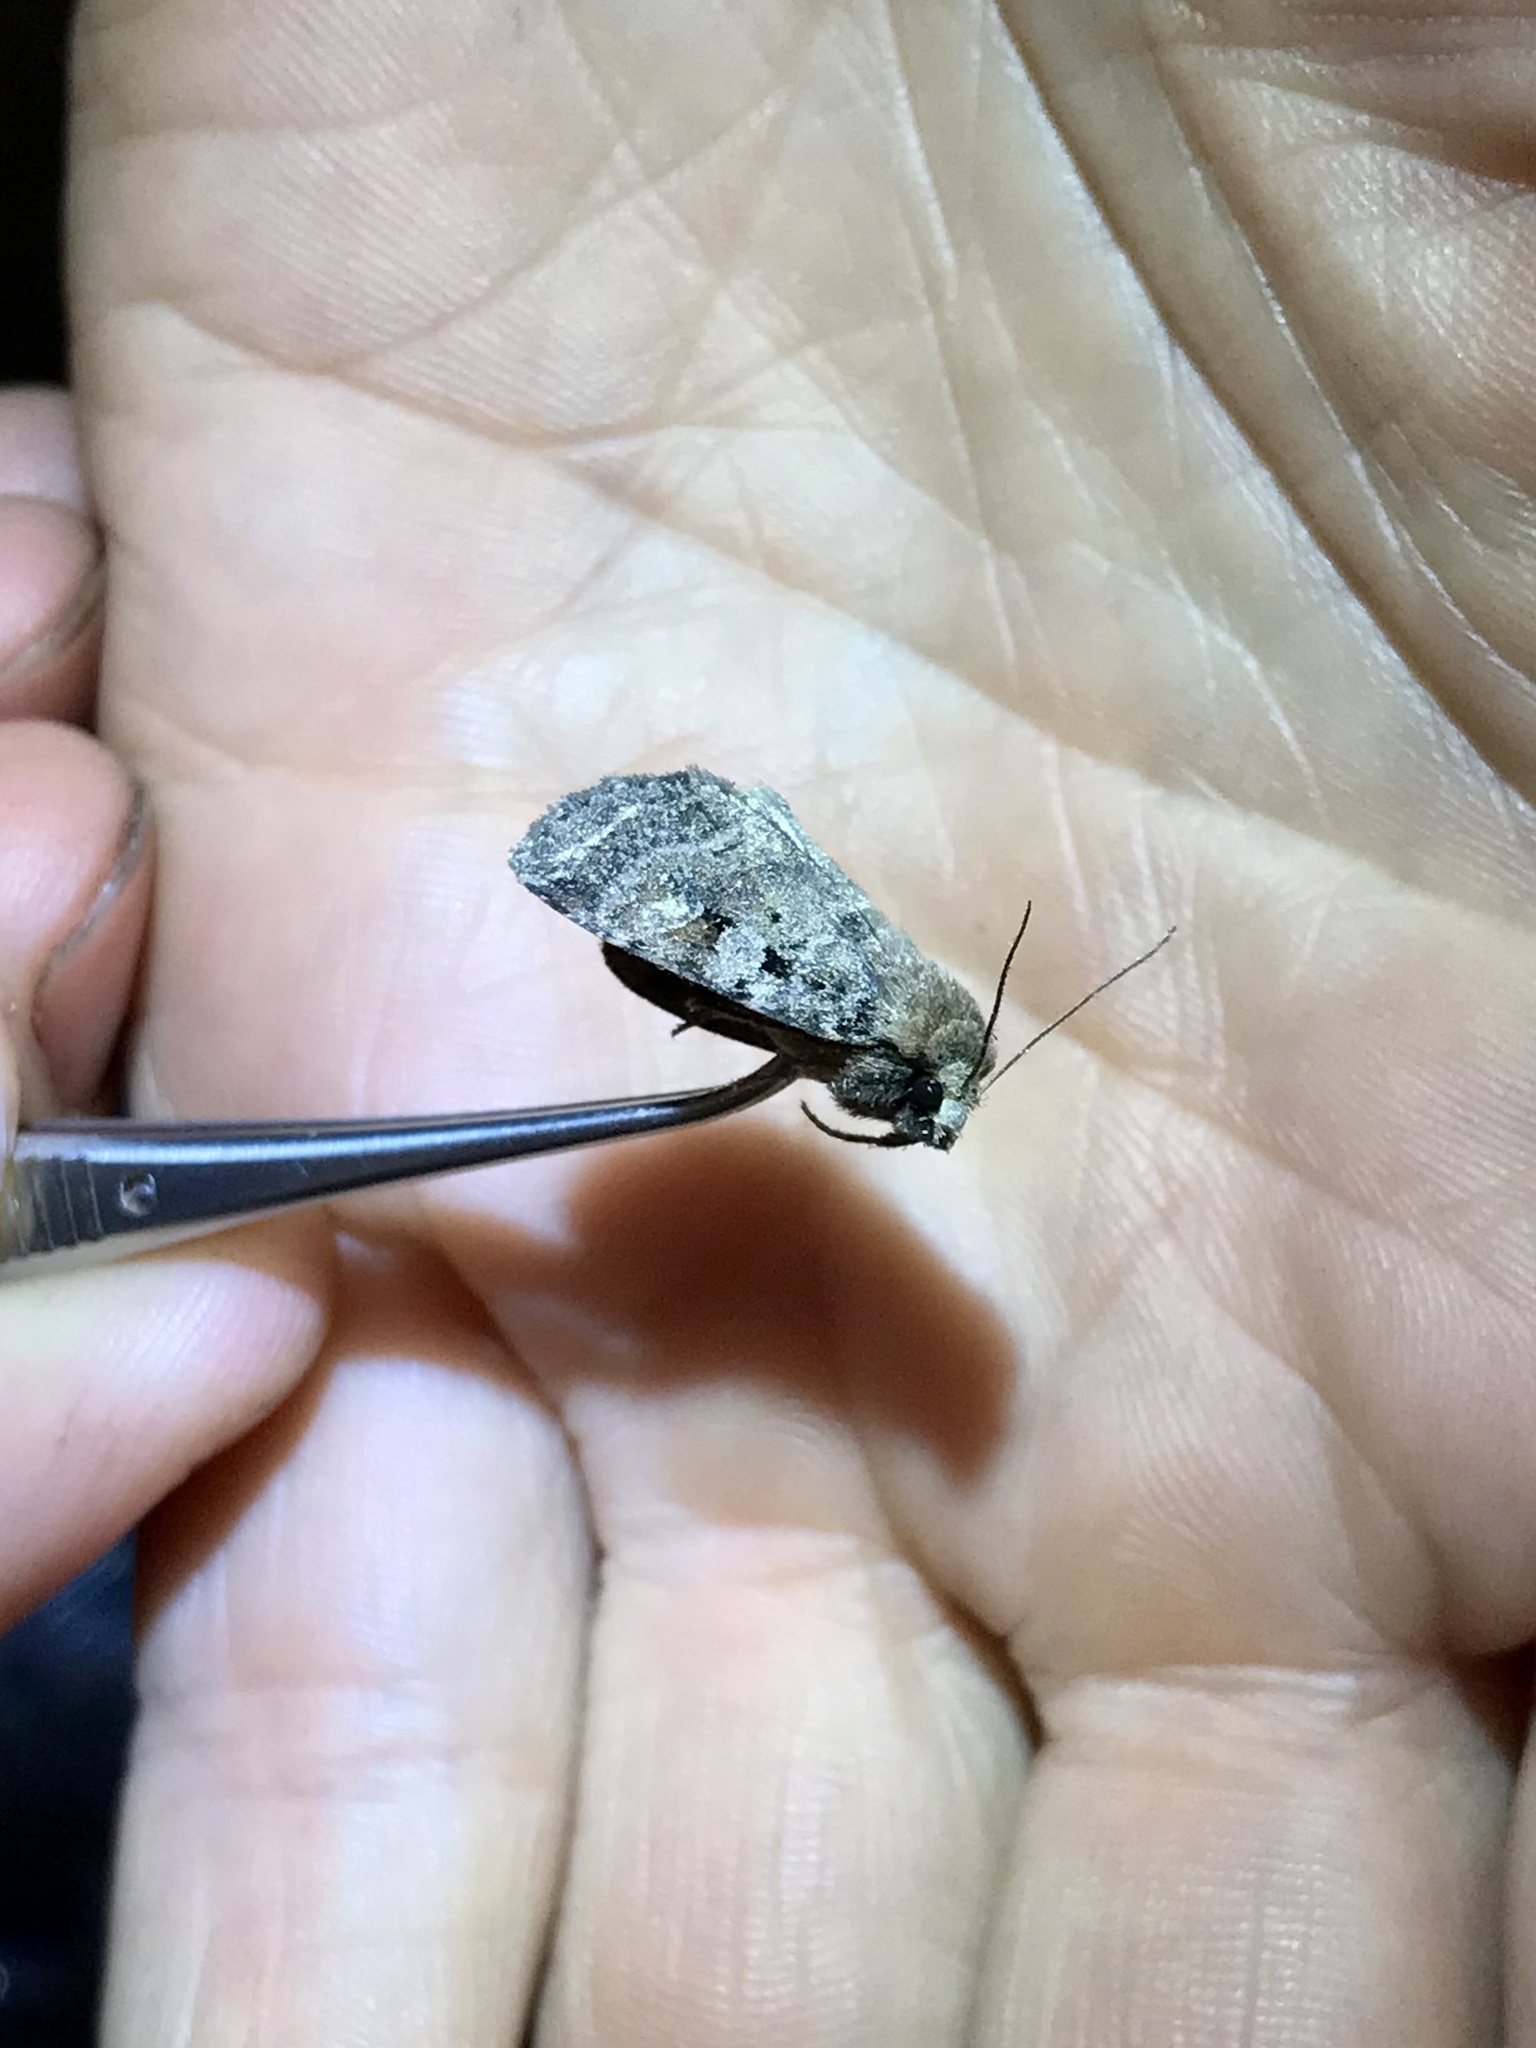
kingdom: Animalia
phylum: Arthropoda
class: Insecta
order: Lepidoptera
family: Noctuidae
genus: Diarsia
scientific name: Diarsia jucunda
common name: Smaller pinkish dart
